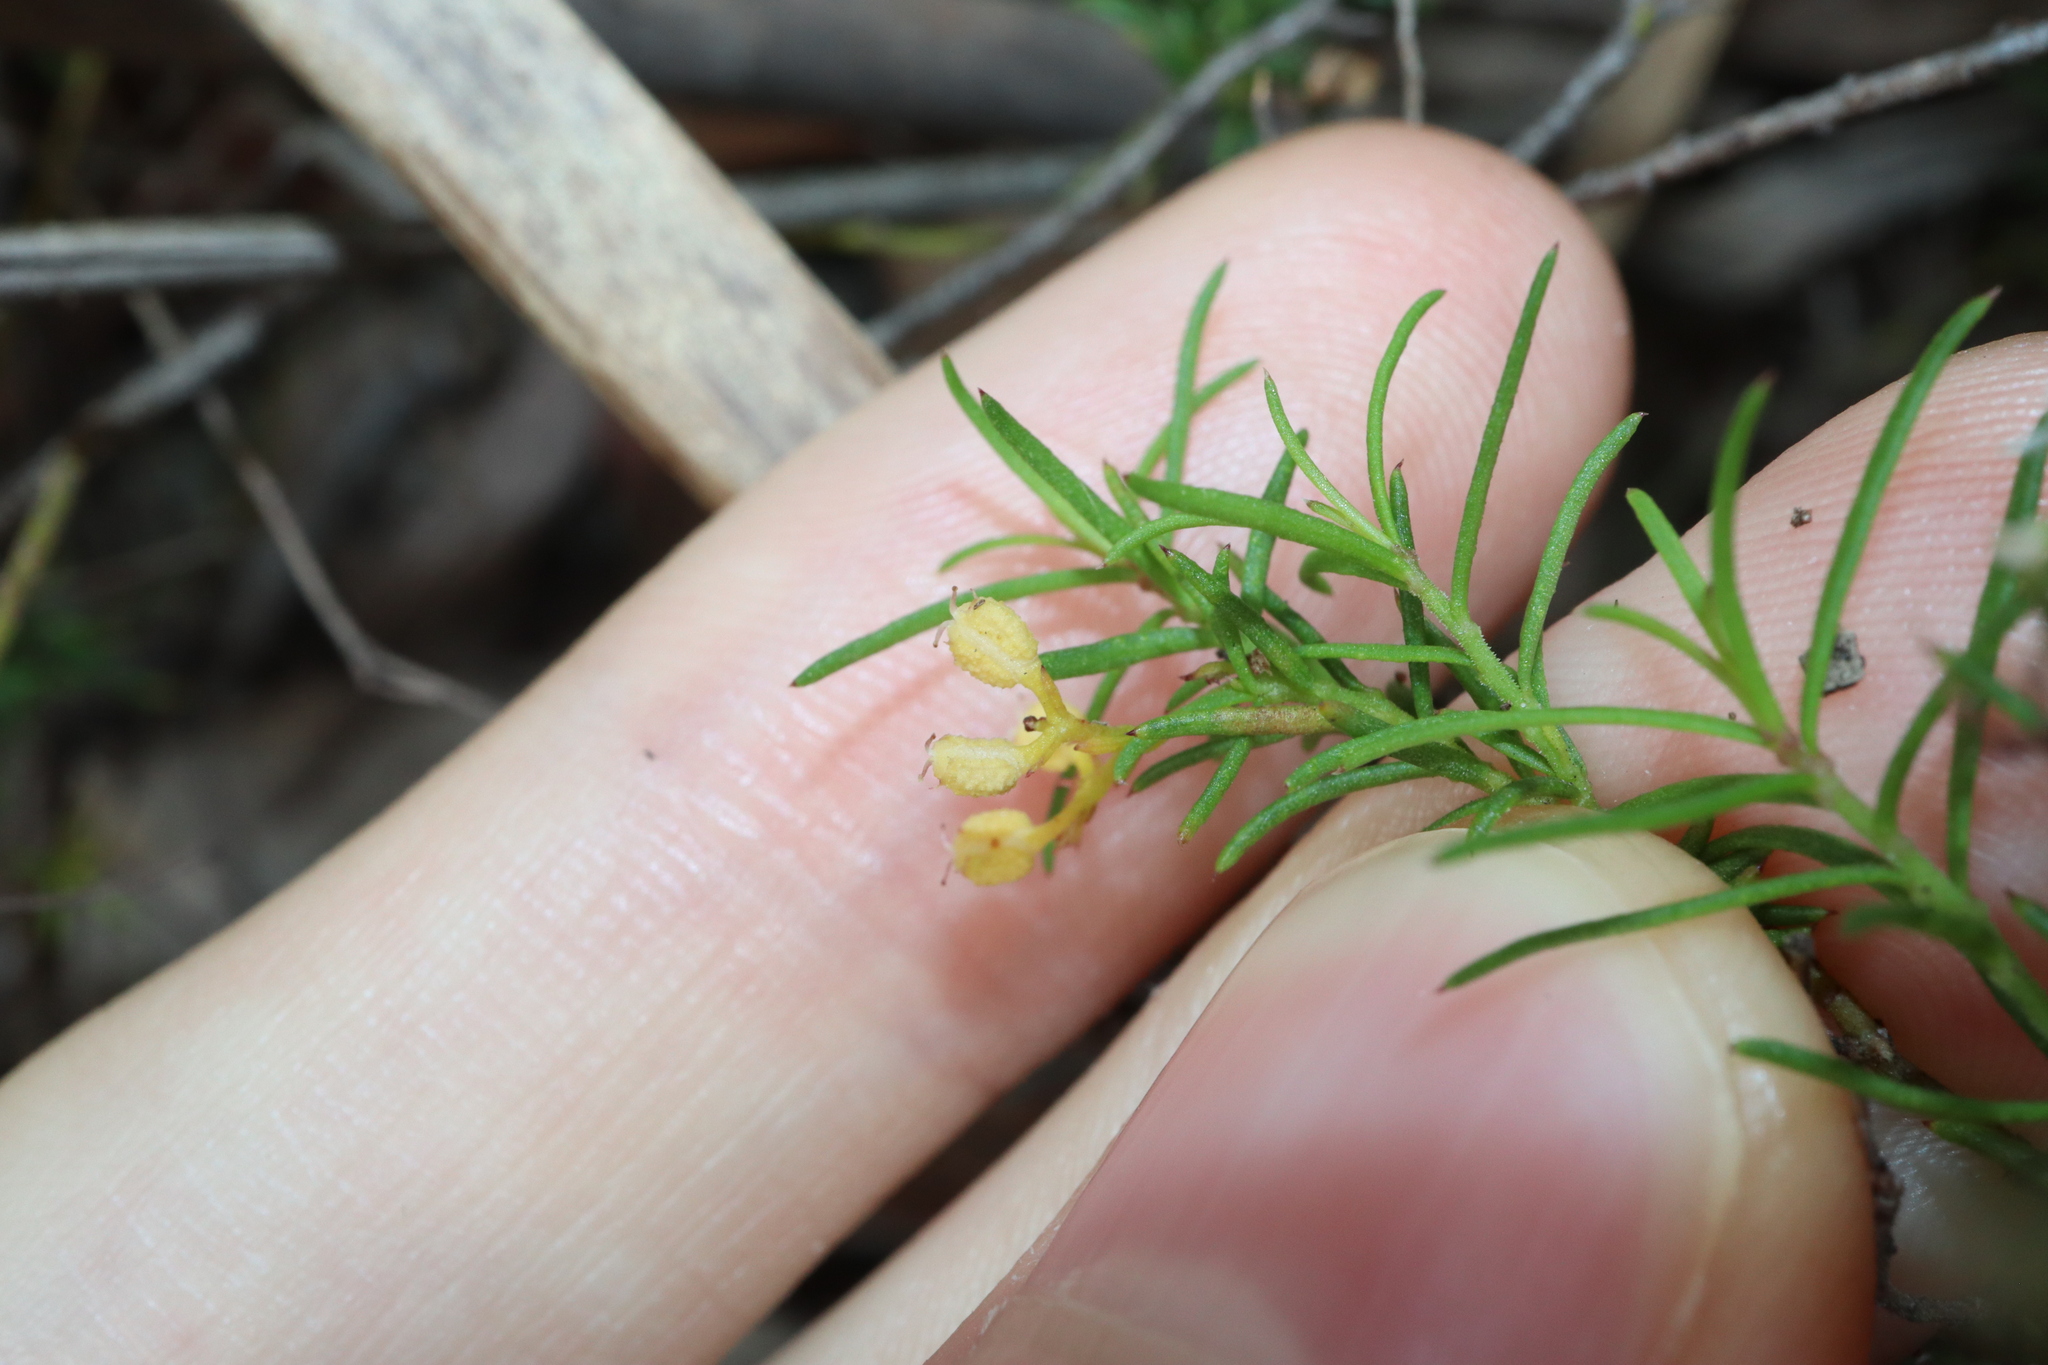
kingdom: Plantae
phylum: Tracheophyta
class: Magnoliopsida
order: Apiales
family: Apiaceae
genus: Platysace
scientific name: Platysace ericoides
